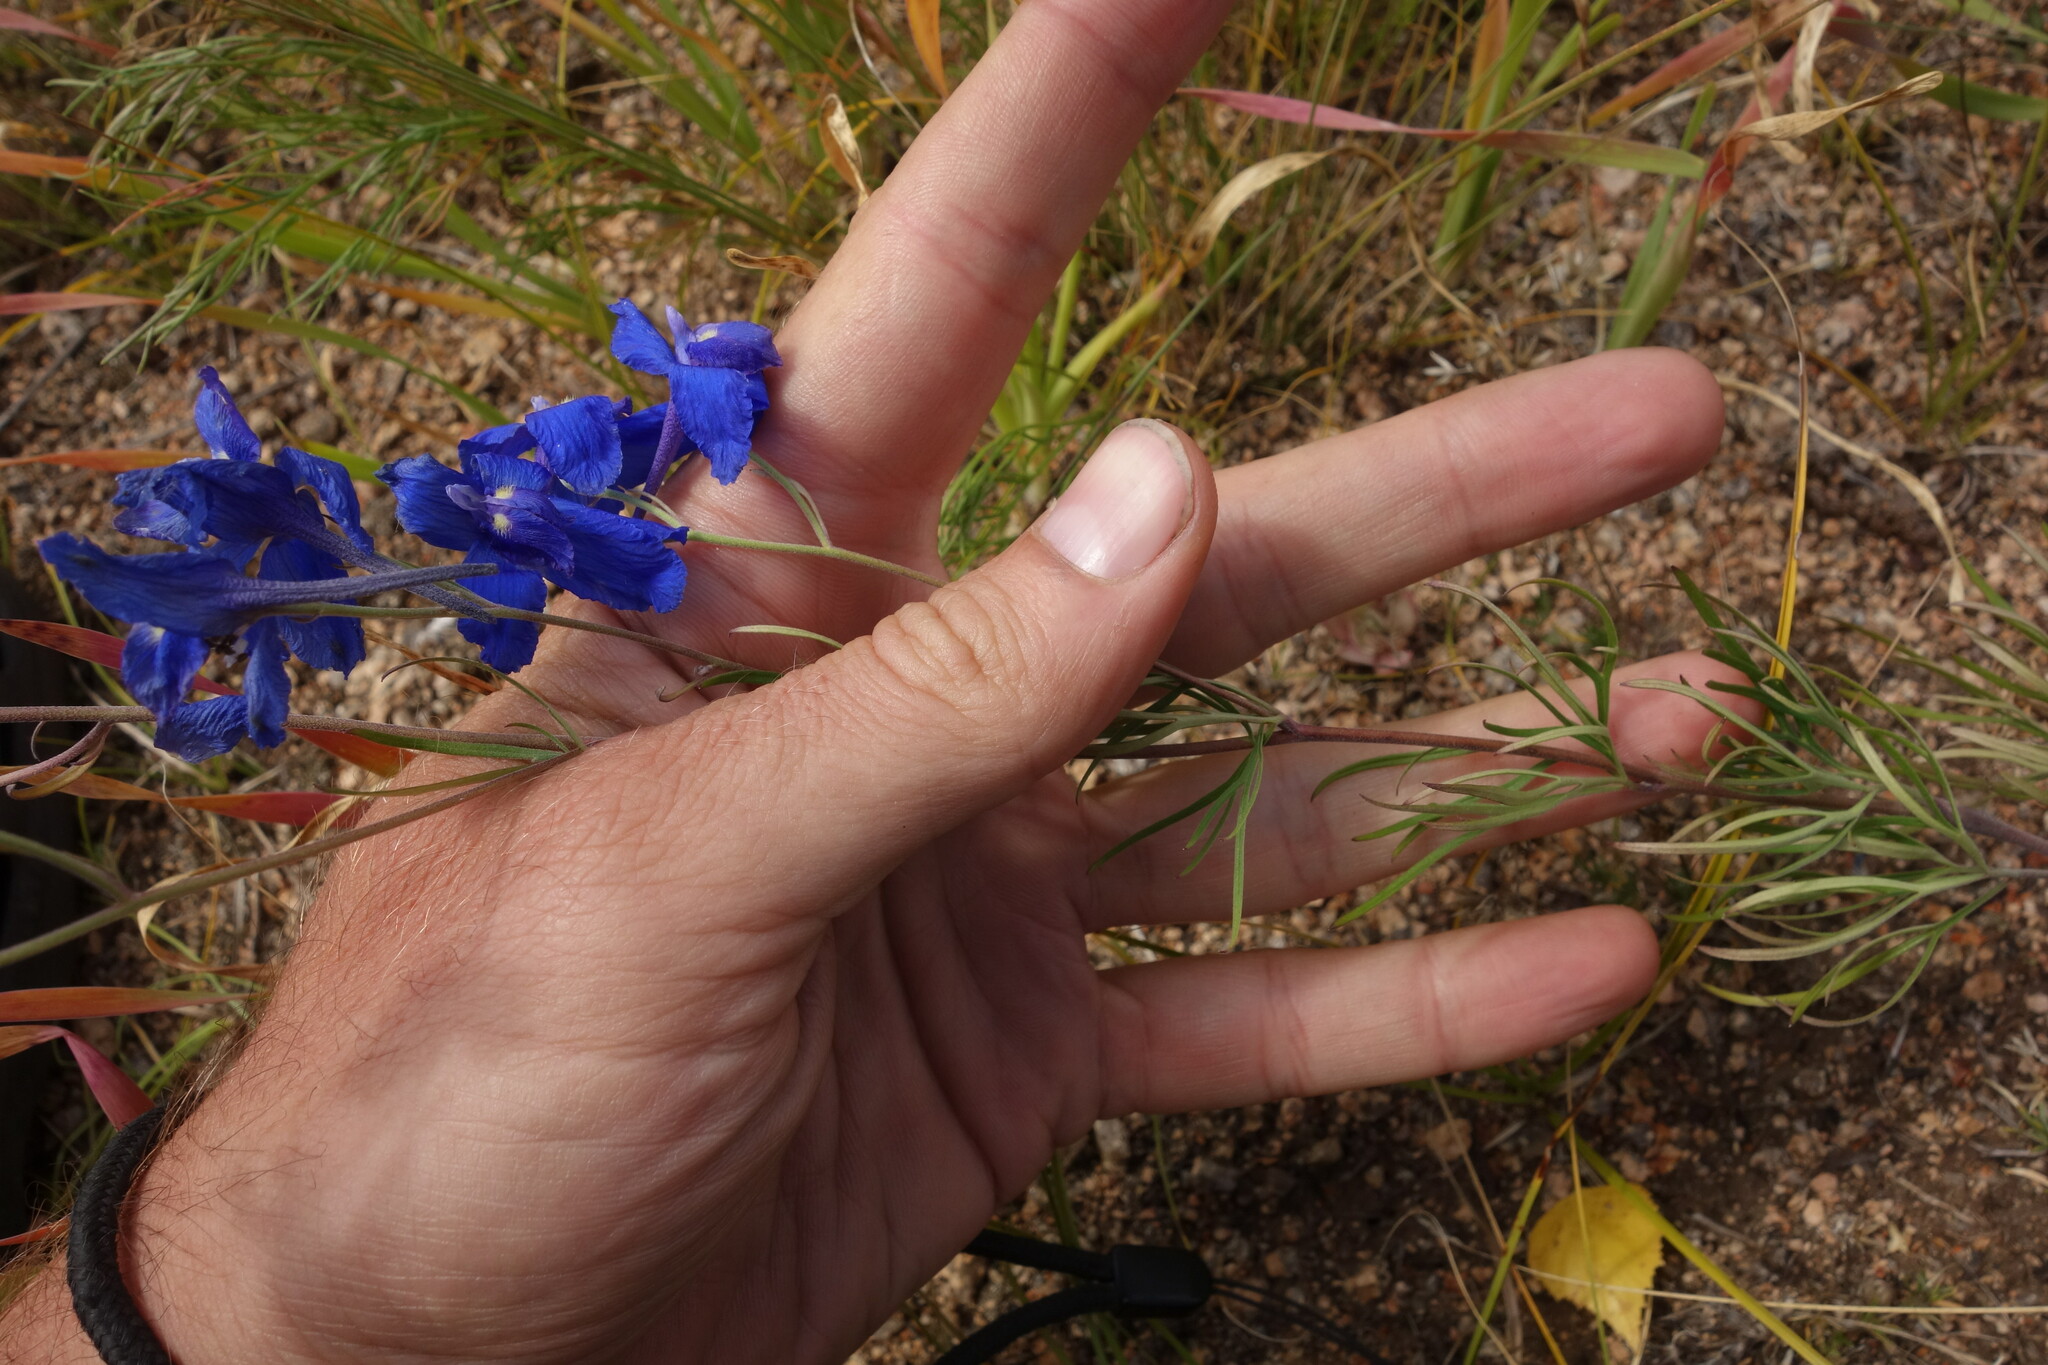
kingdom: Plantae
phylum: Tracheophyta
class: Magnoliopsida
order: Ranunculales
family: Ranunculaceae
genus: Delphinium
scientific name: Delphinium grandiflorum
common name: Siberian larkspur
